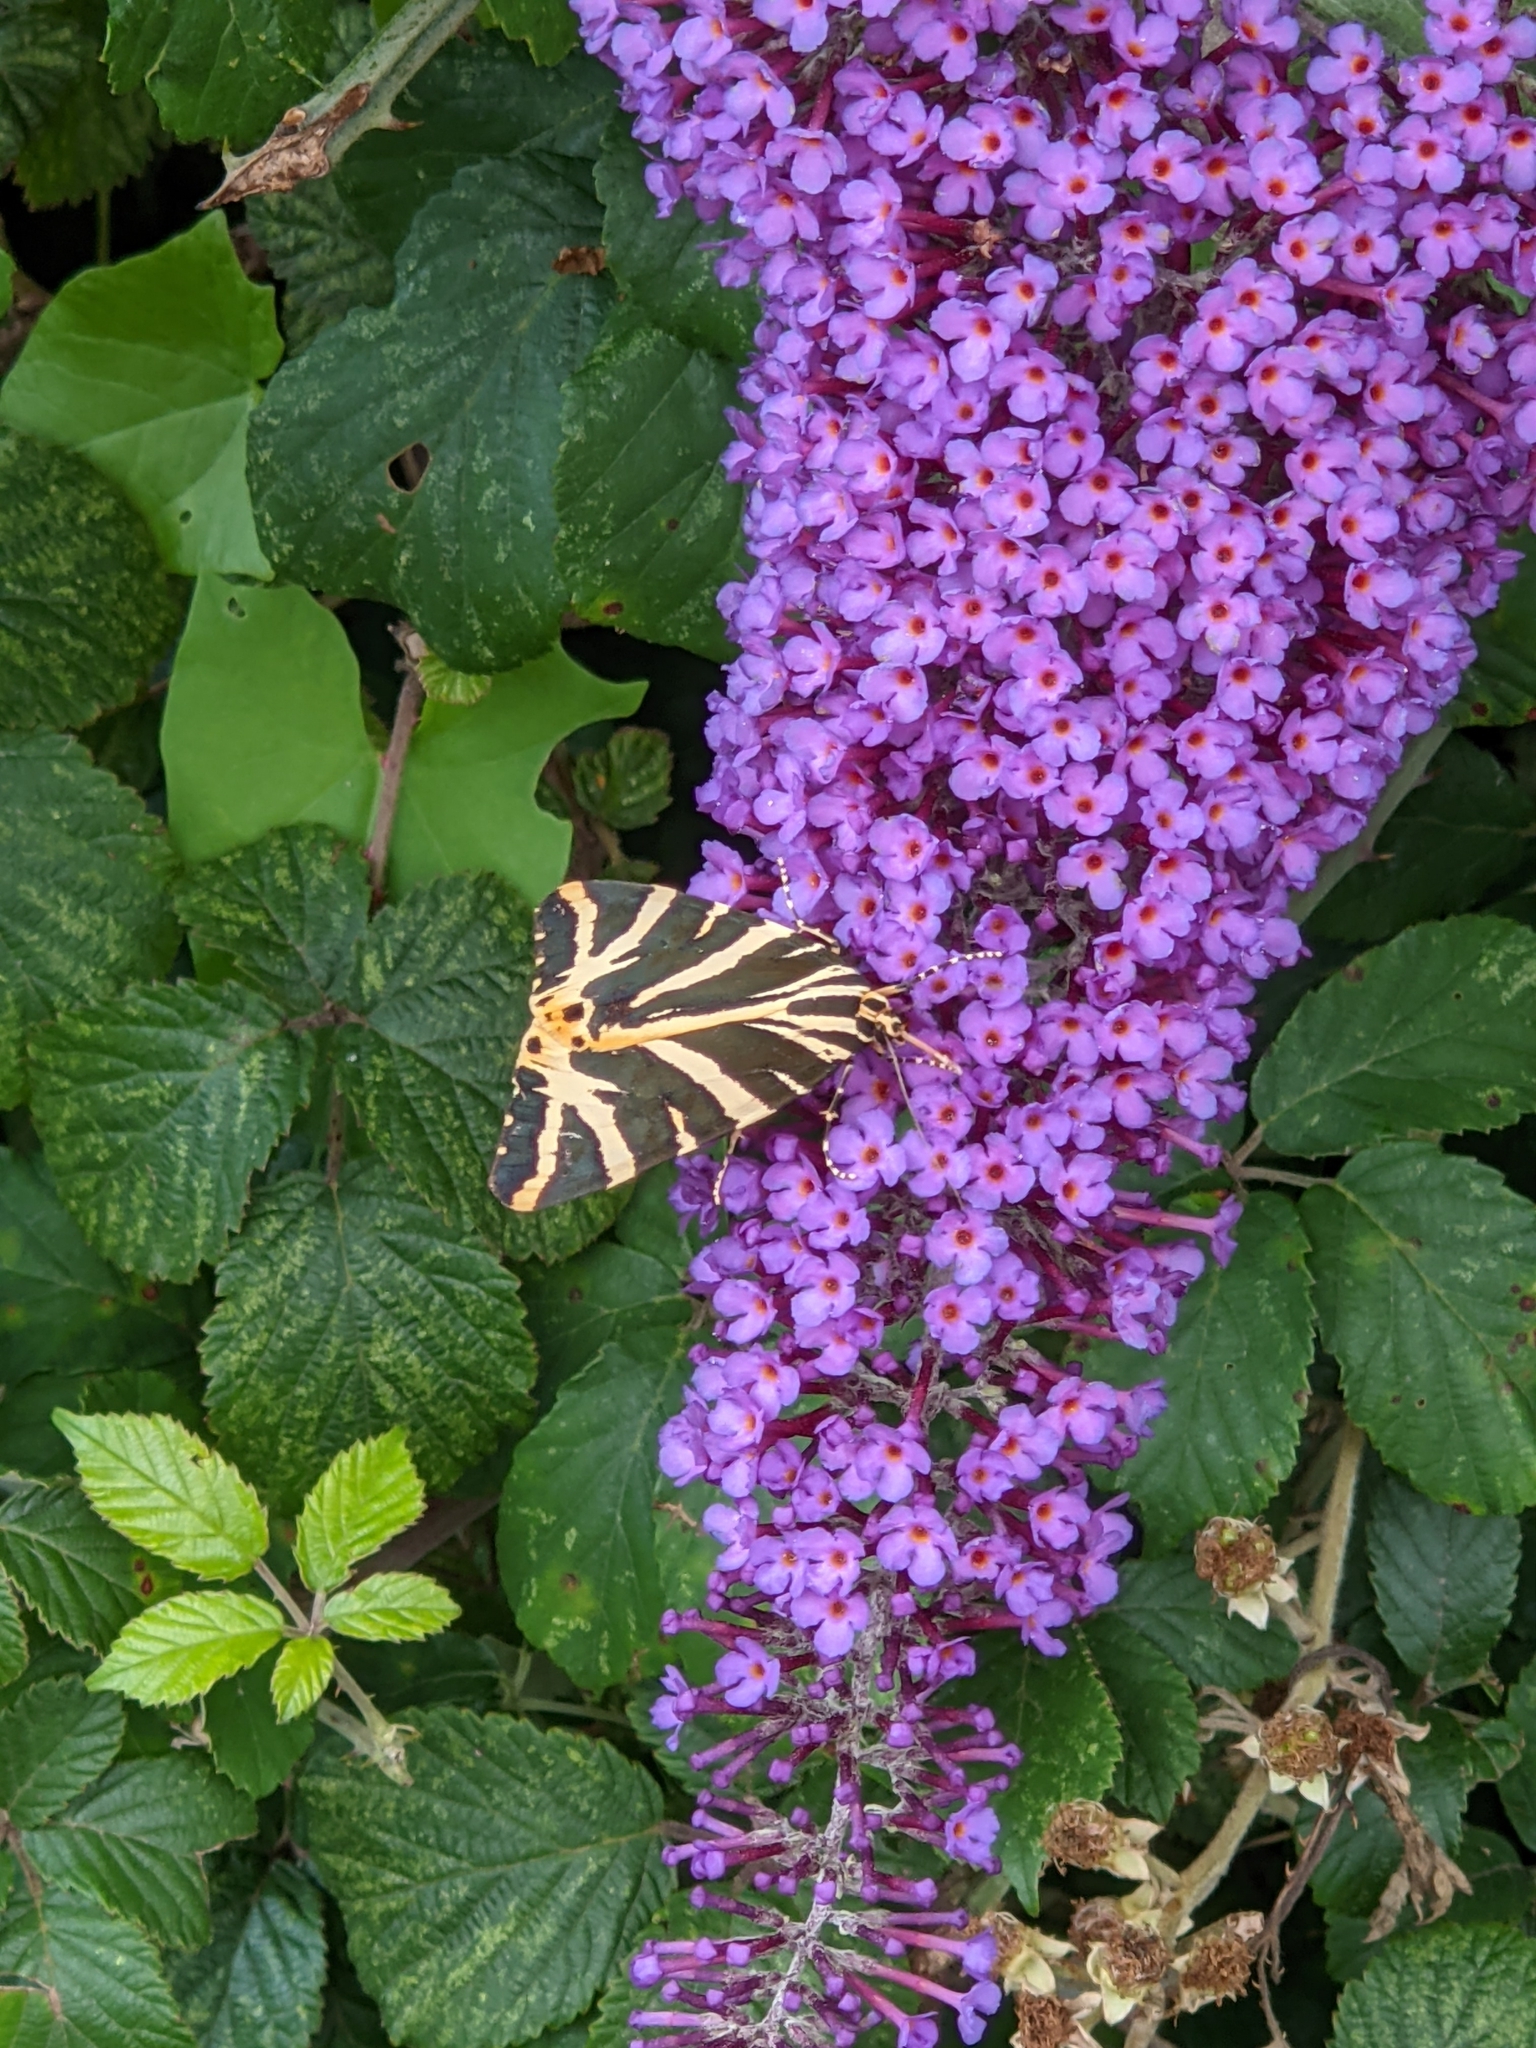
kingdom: Animalia
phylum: Arthropoda
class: Insecta
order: Lepidoptera
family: Erebidae
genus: Euplagia
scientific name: Euplagia quadripunctaria
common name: Jersey tiger
